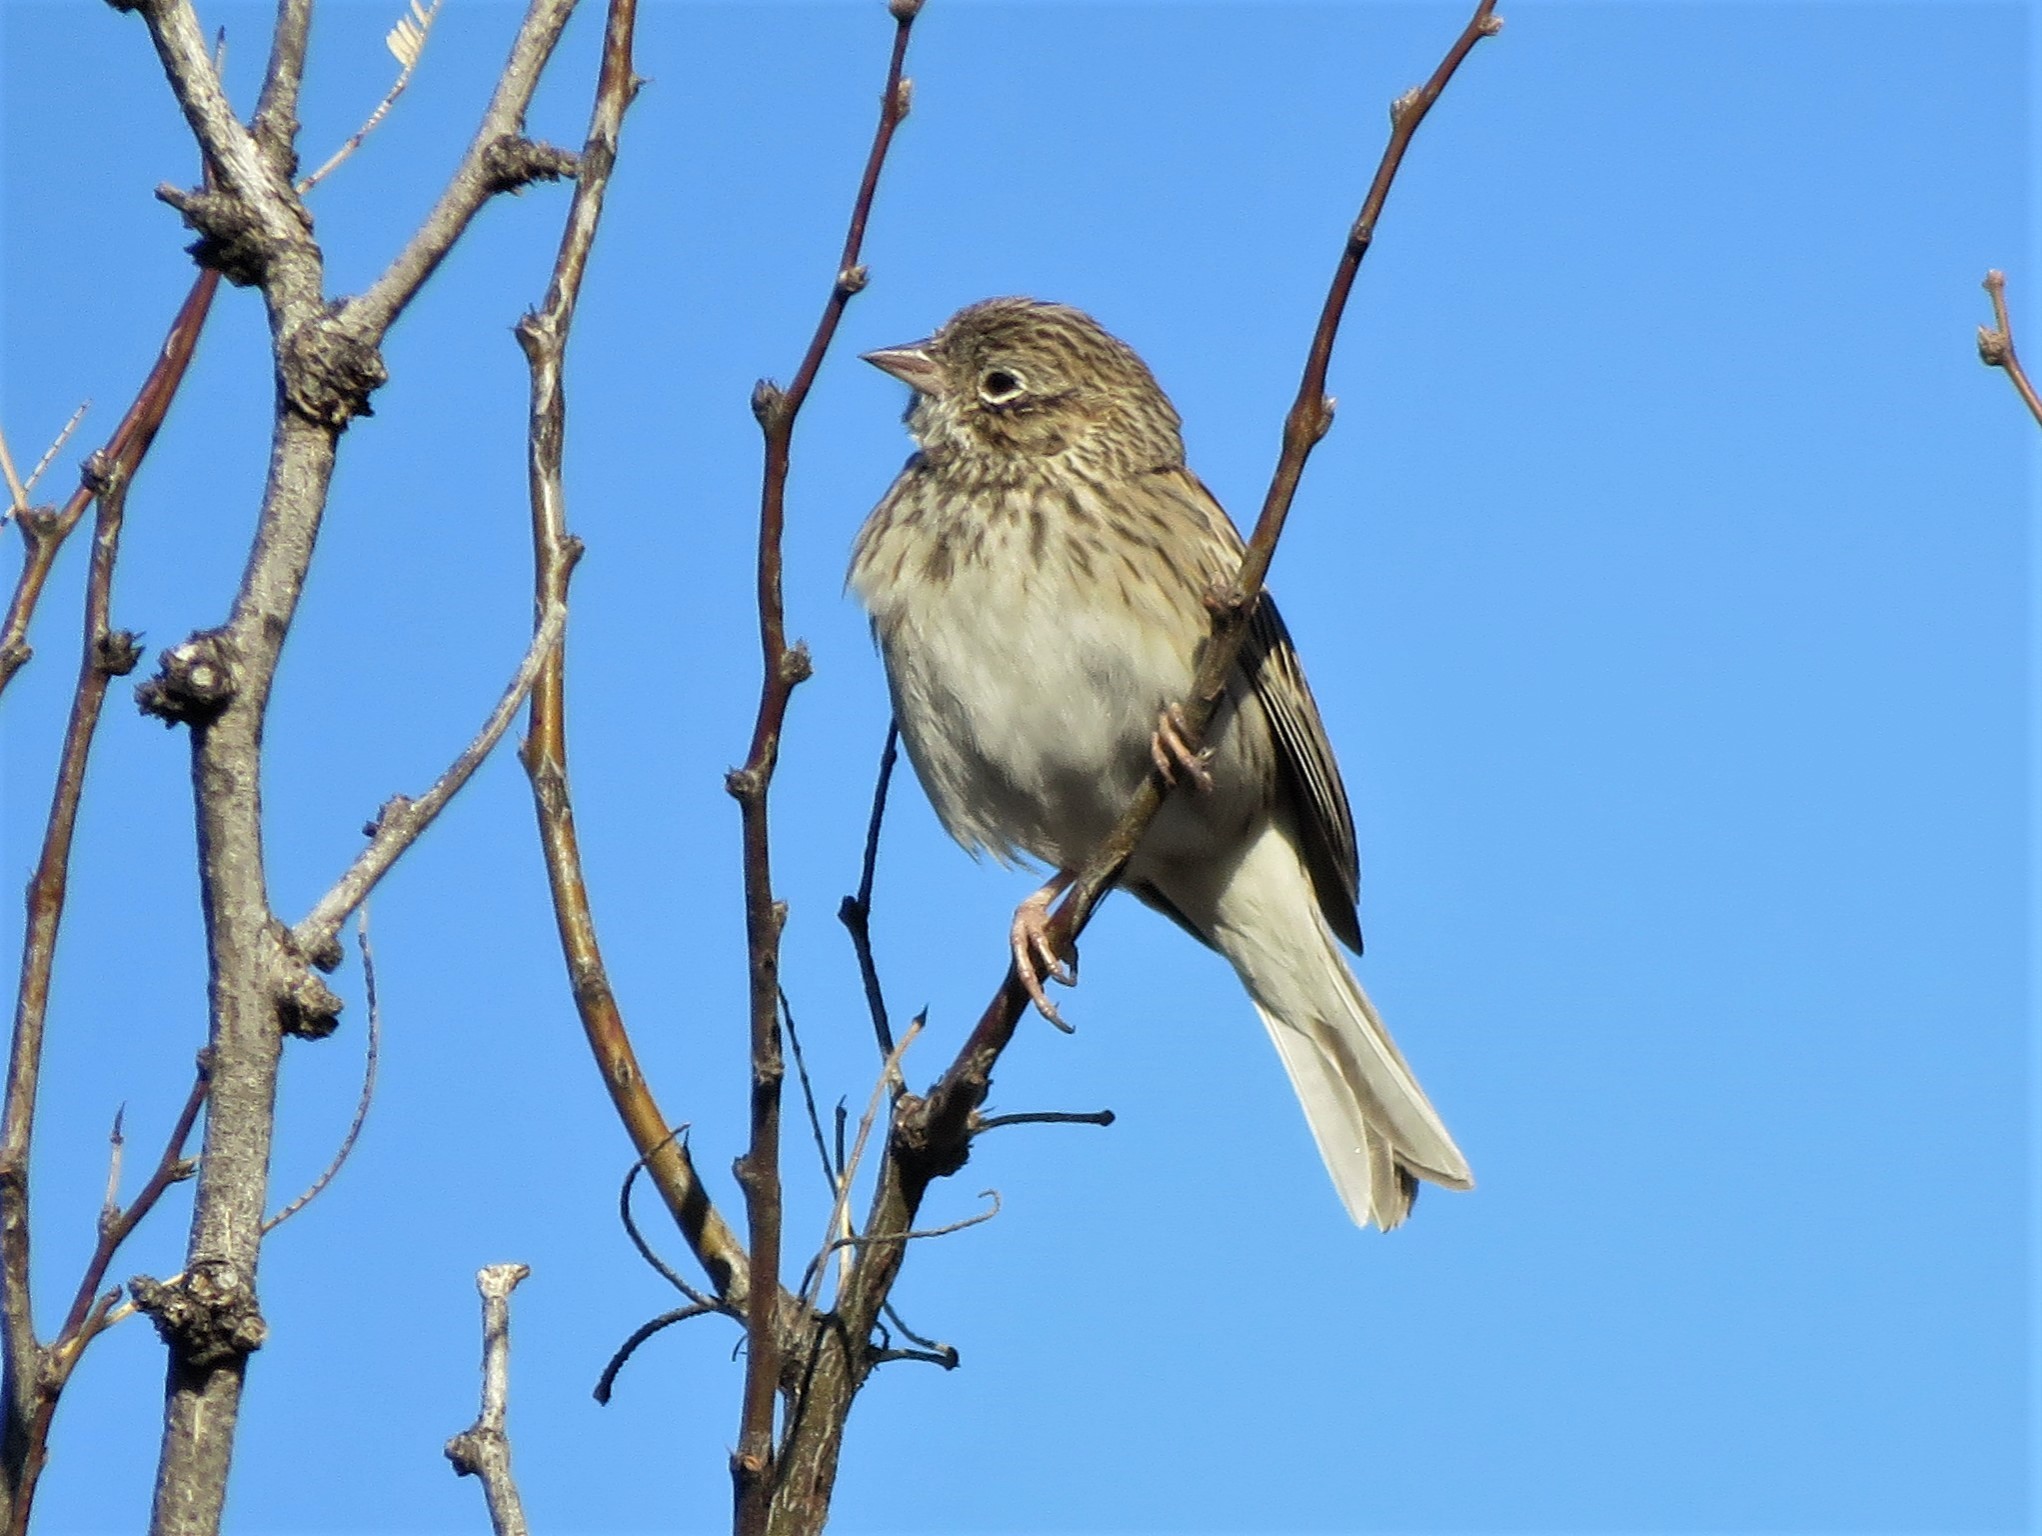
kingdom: Animalia
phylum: Chordata
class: Aves
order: Passeriformes
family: Passerellidae
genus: Pooecetes
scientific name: Pooecetes gramineus
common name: Vesper sparrow
